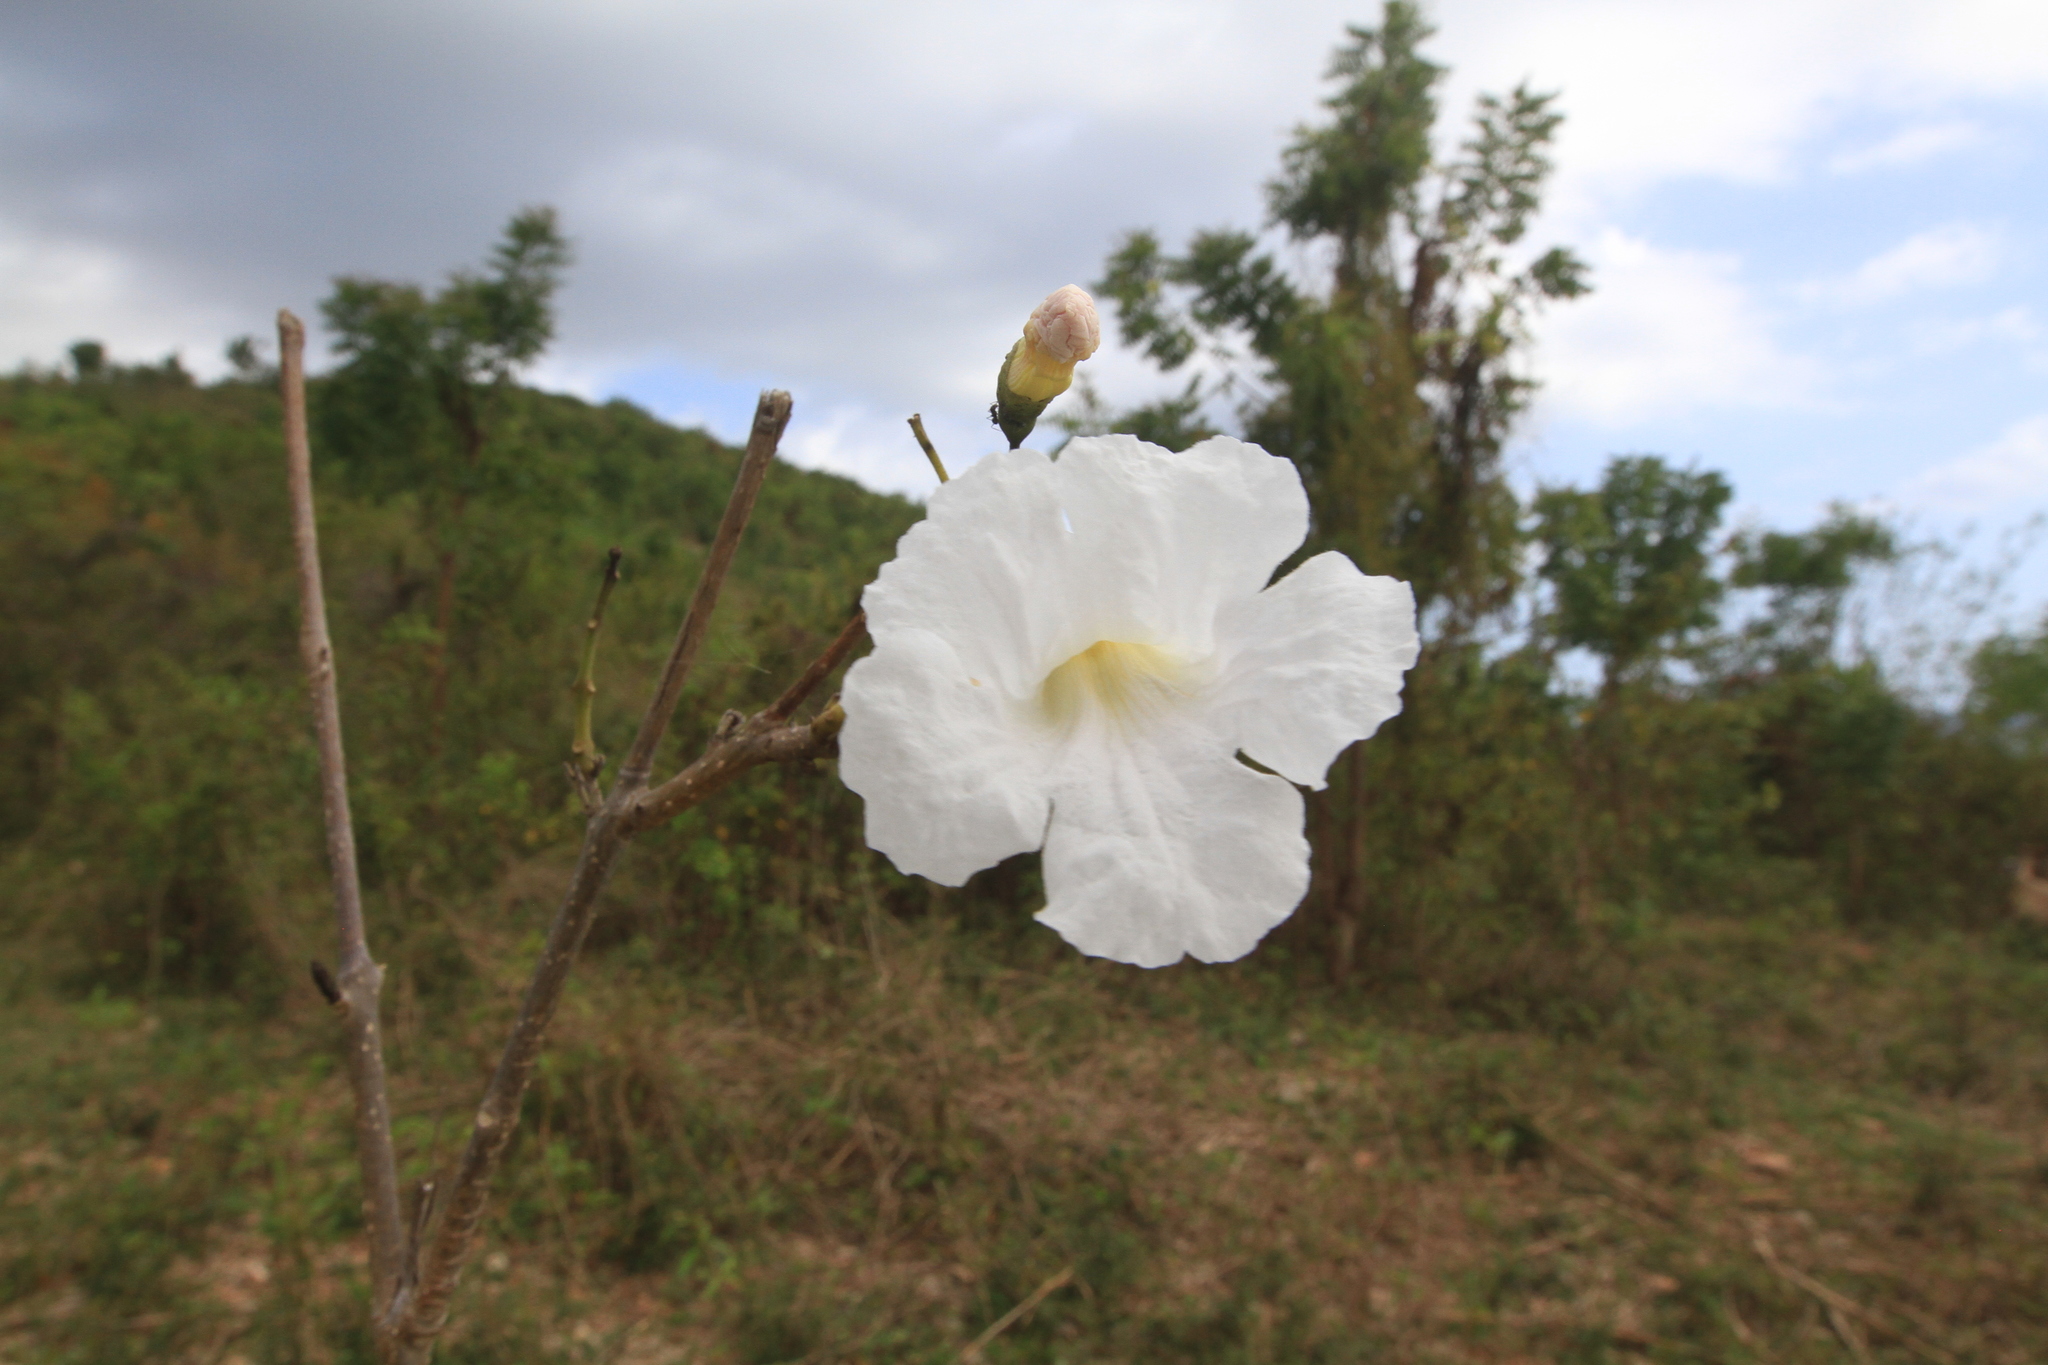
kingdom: Plantae
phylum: Tracheophyta
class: Magnoliopsida
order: Lamiales
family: Bignoniaceae
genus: Tabebuia
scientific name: Tabebuia calcicola
